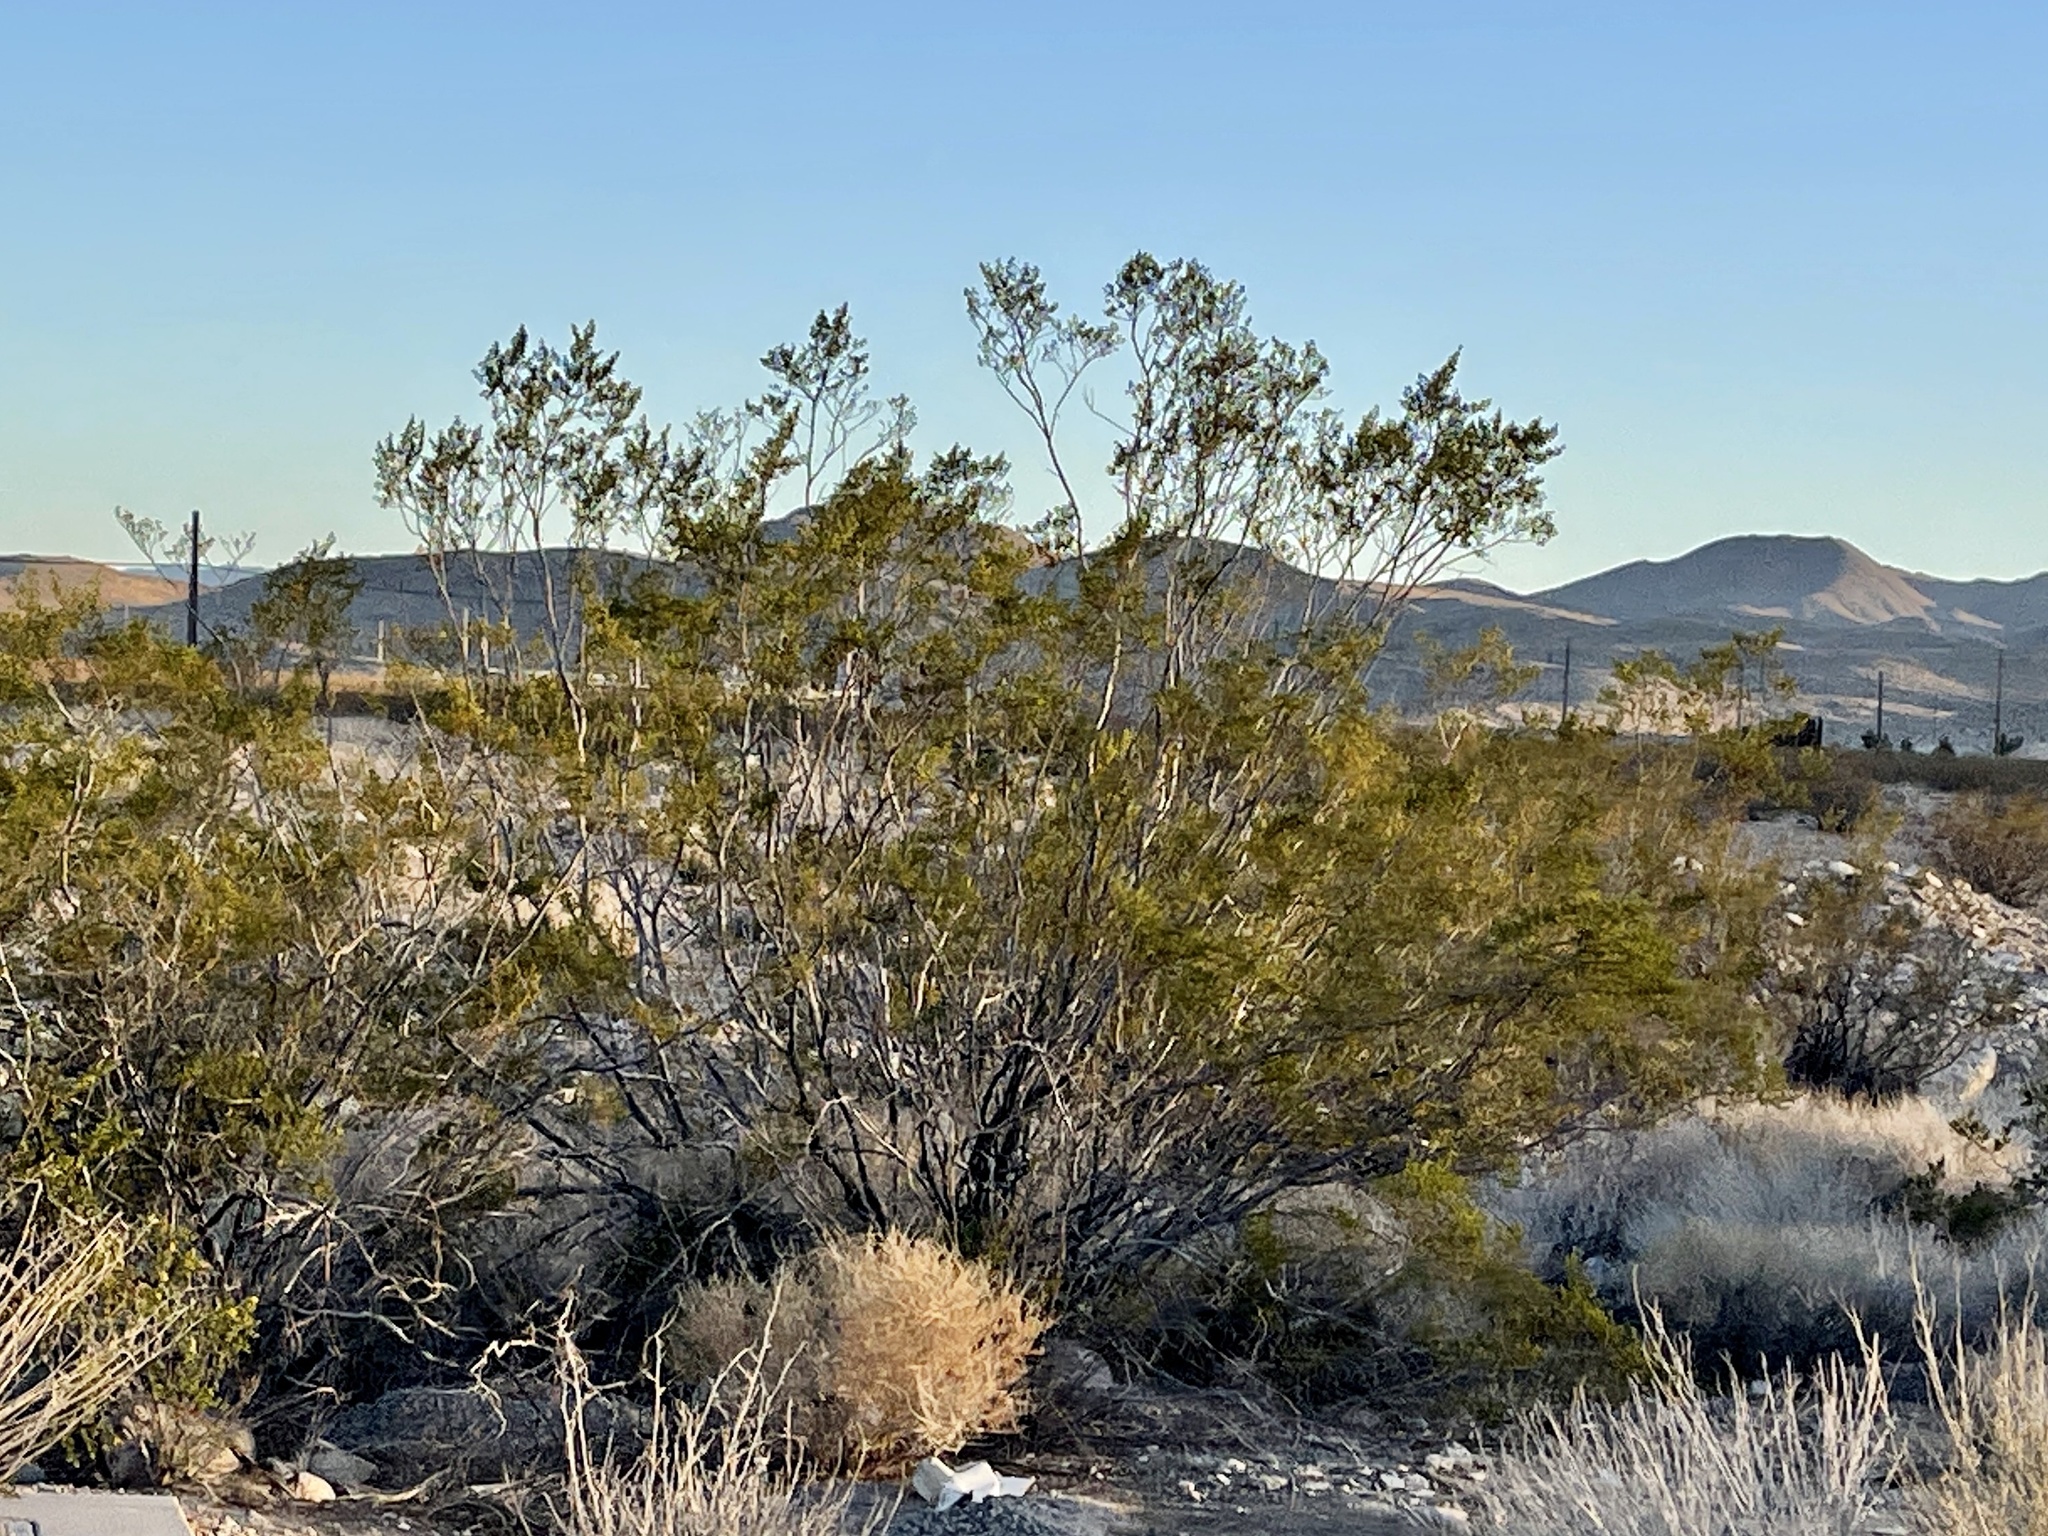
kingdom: Plantae
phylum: Tracheophyta
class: Magnoliopsida
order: Zygophyllales
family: Zygophyllaceae
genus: Larrea
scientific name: Larrea tridentata
